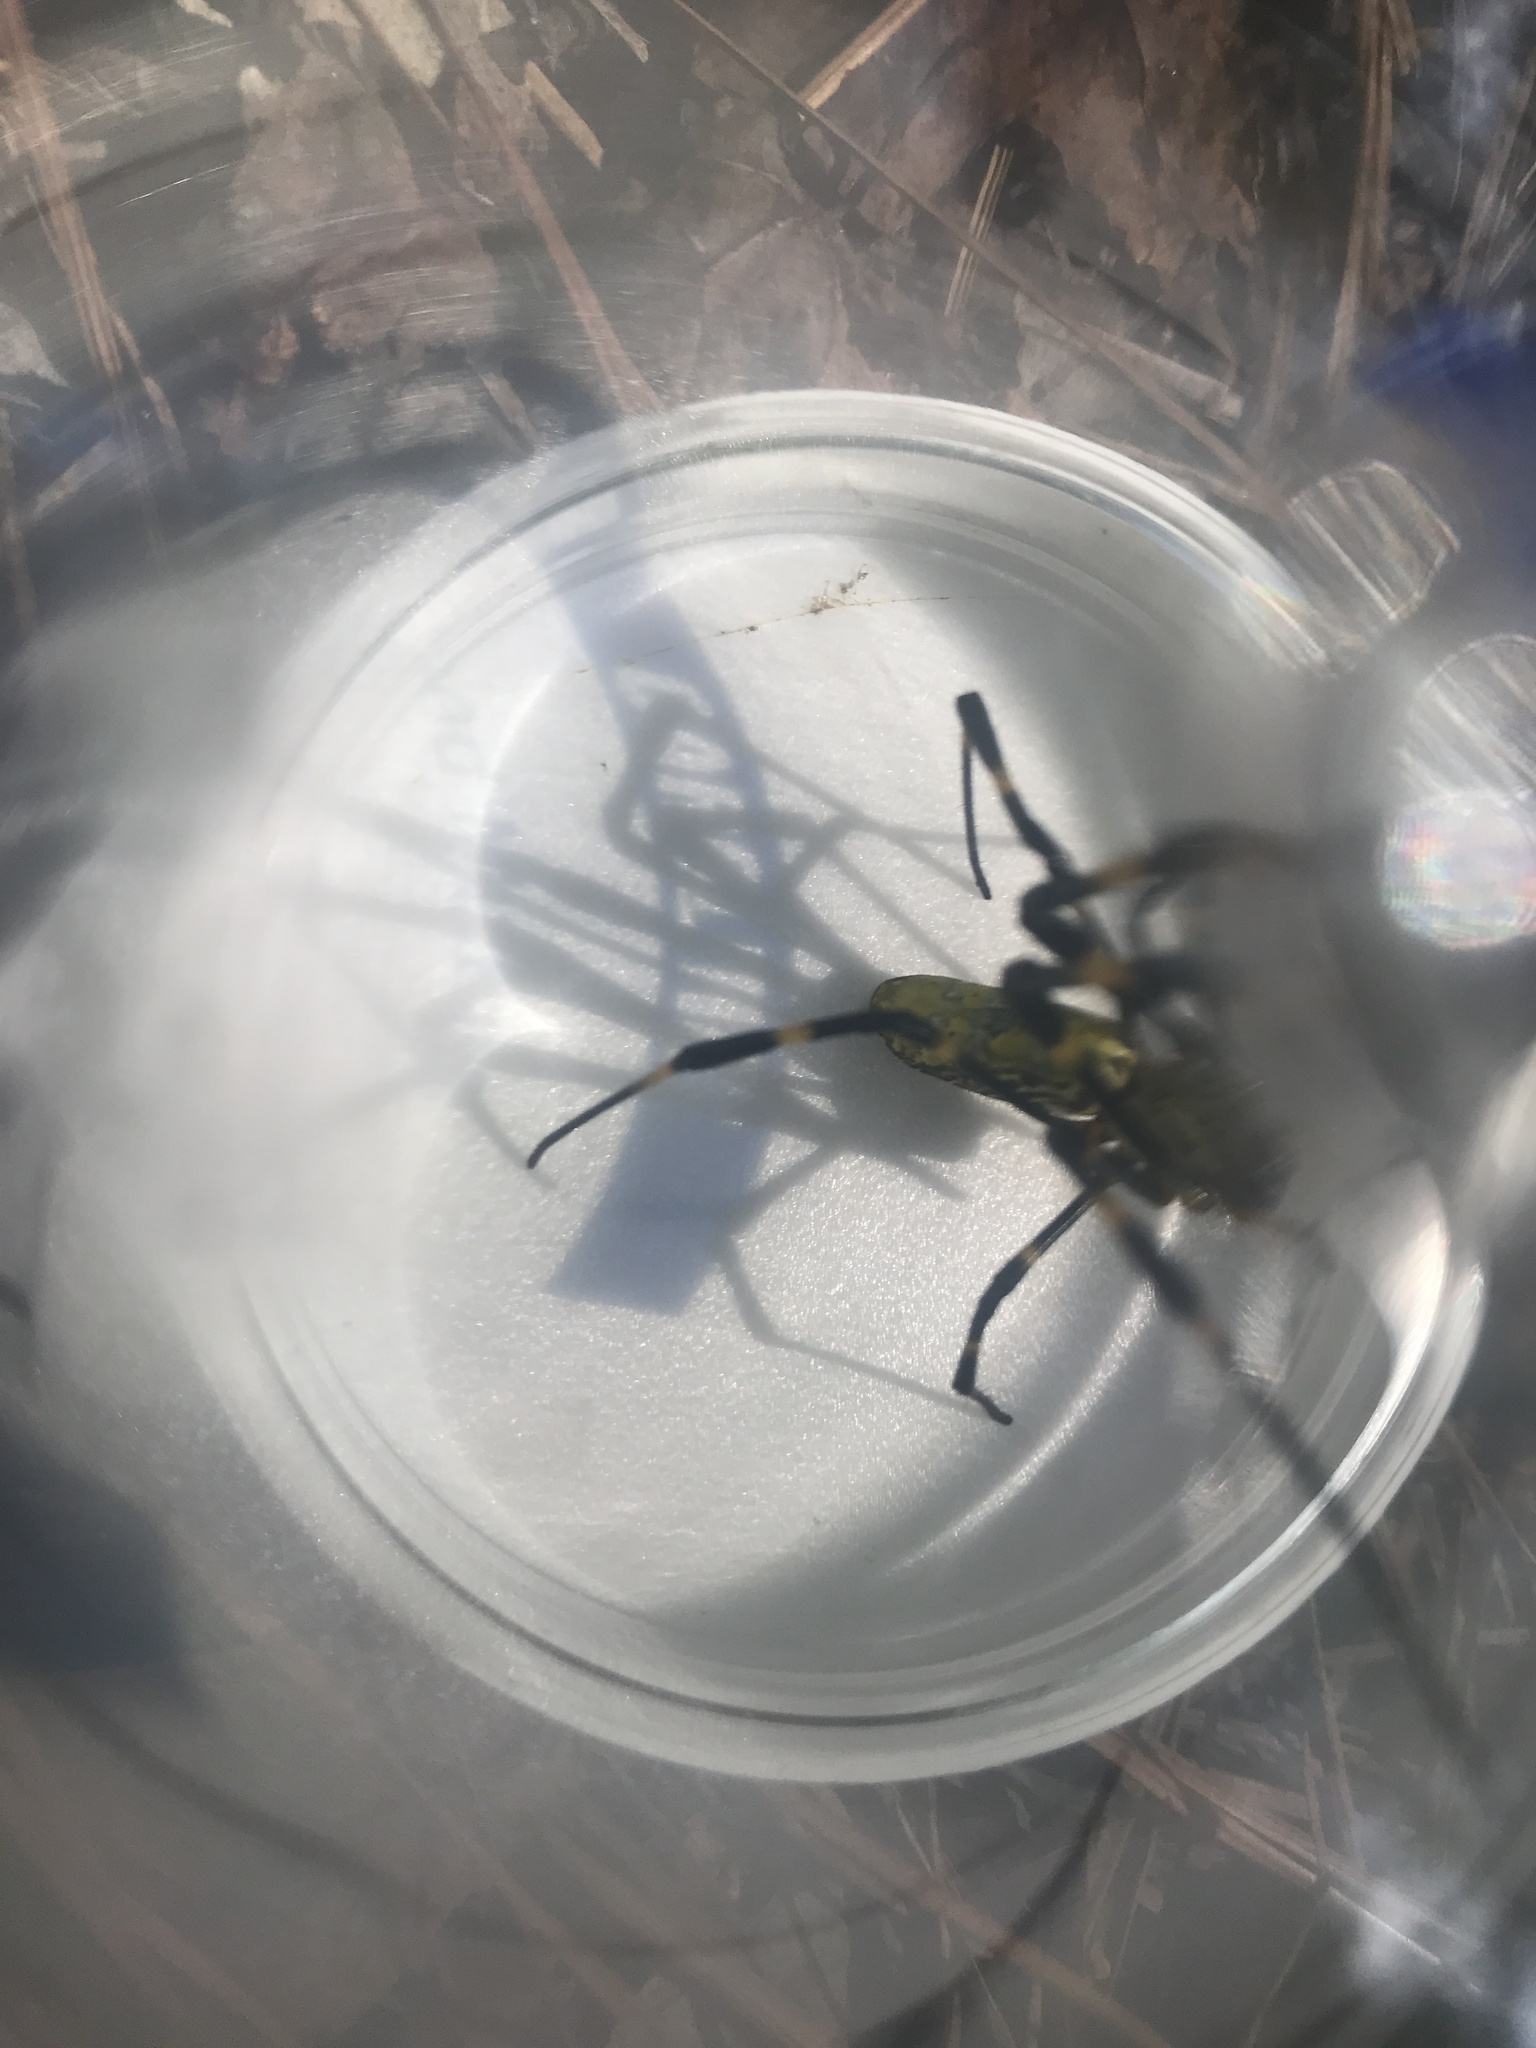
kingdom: Animalia
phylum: Arthropoda
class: Arachnida
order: Araneae
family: Araneidae
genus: Trichonephila
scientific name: Trichonephila clavata
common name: Jorō spider
